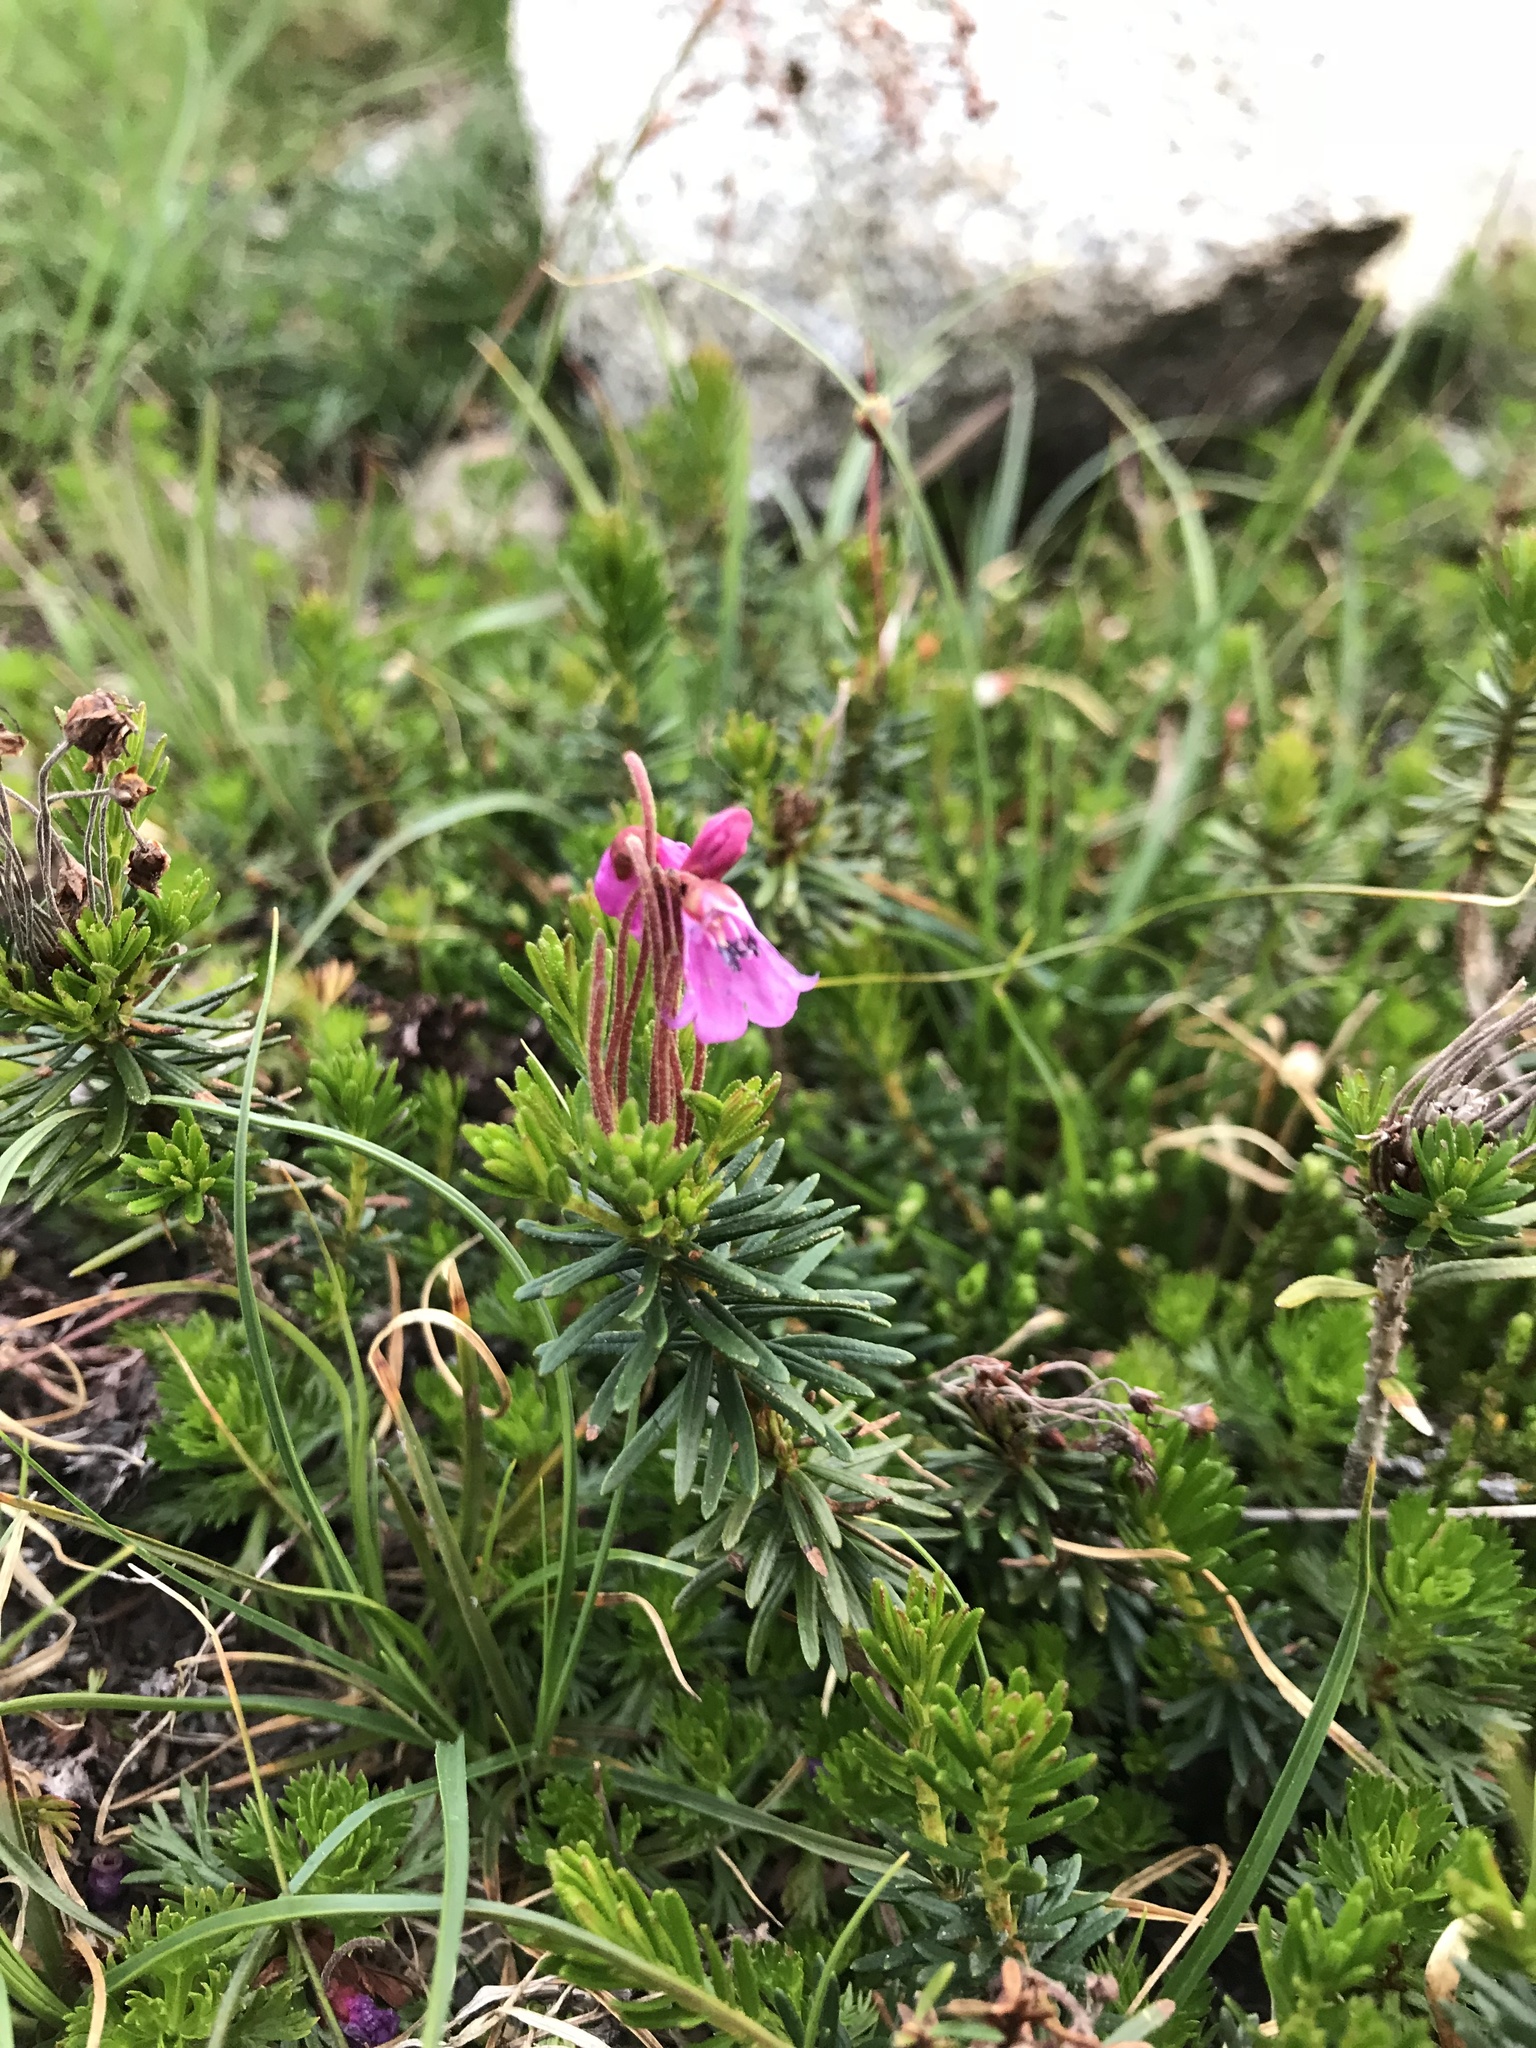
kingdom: Plantae
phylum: Tracheophyta
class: Magnoliopsida
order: Ericales
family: Ericaceae
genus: Phyllodoce
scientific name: Phyllodoce empetriformis
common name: Pink mountain heather
